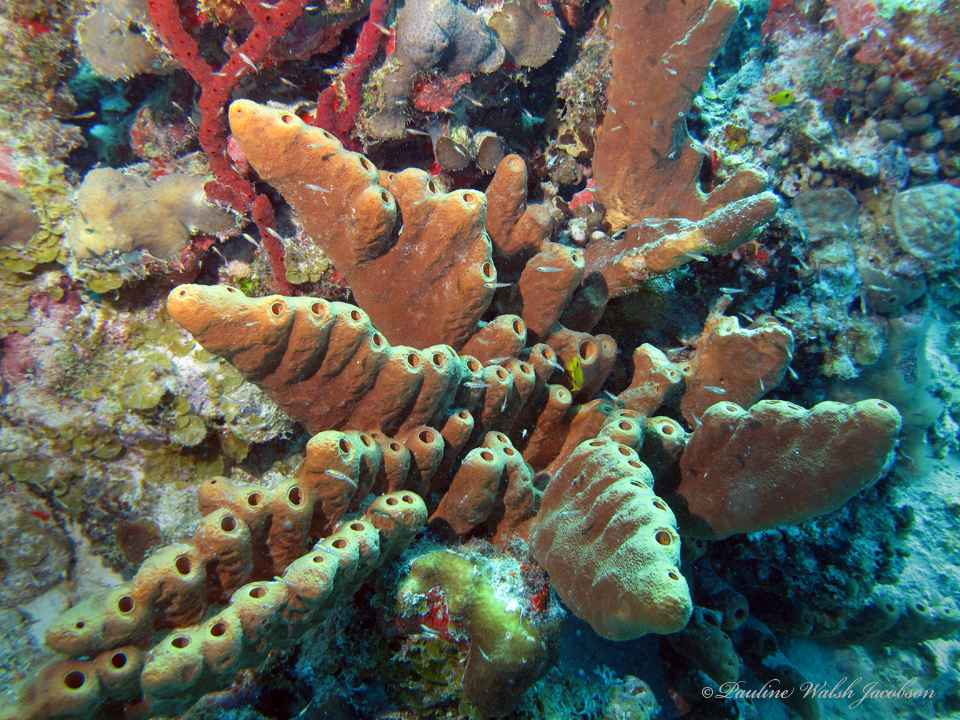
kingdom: Animalia
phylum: Porifera
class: Demospongiae
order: Agelasida
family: Agelasidae
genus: Agelas
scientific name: Agelas conifera
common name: Brown tube sponge
